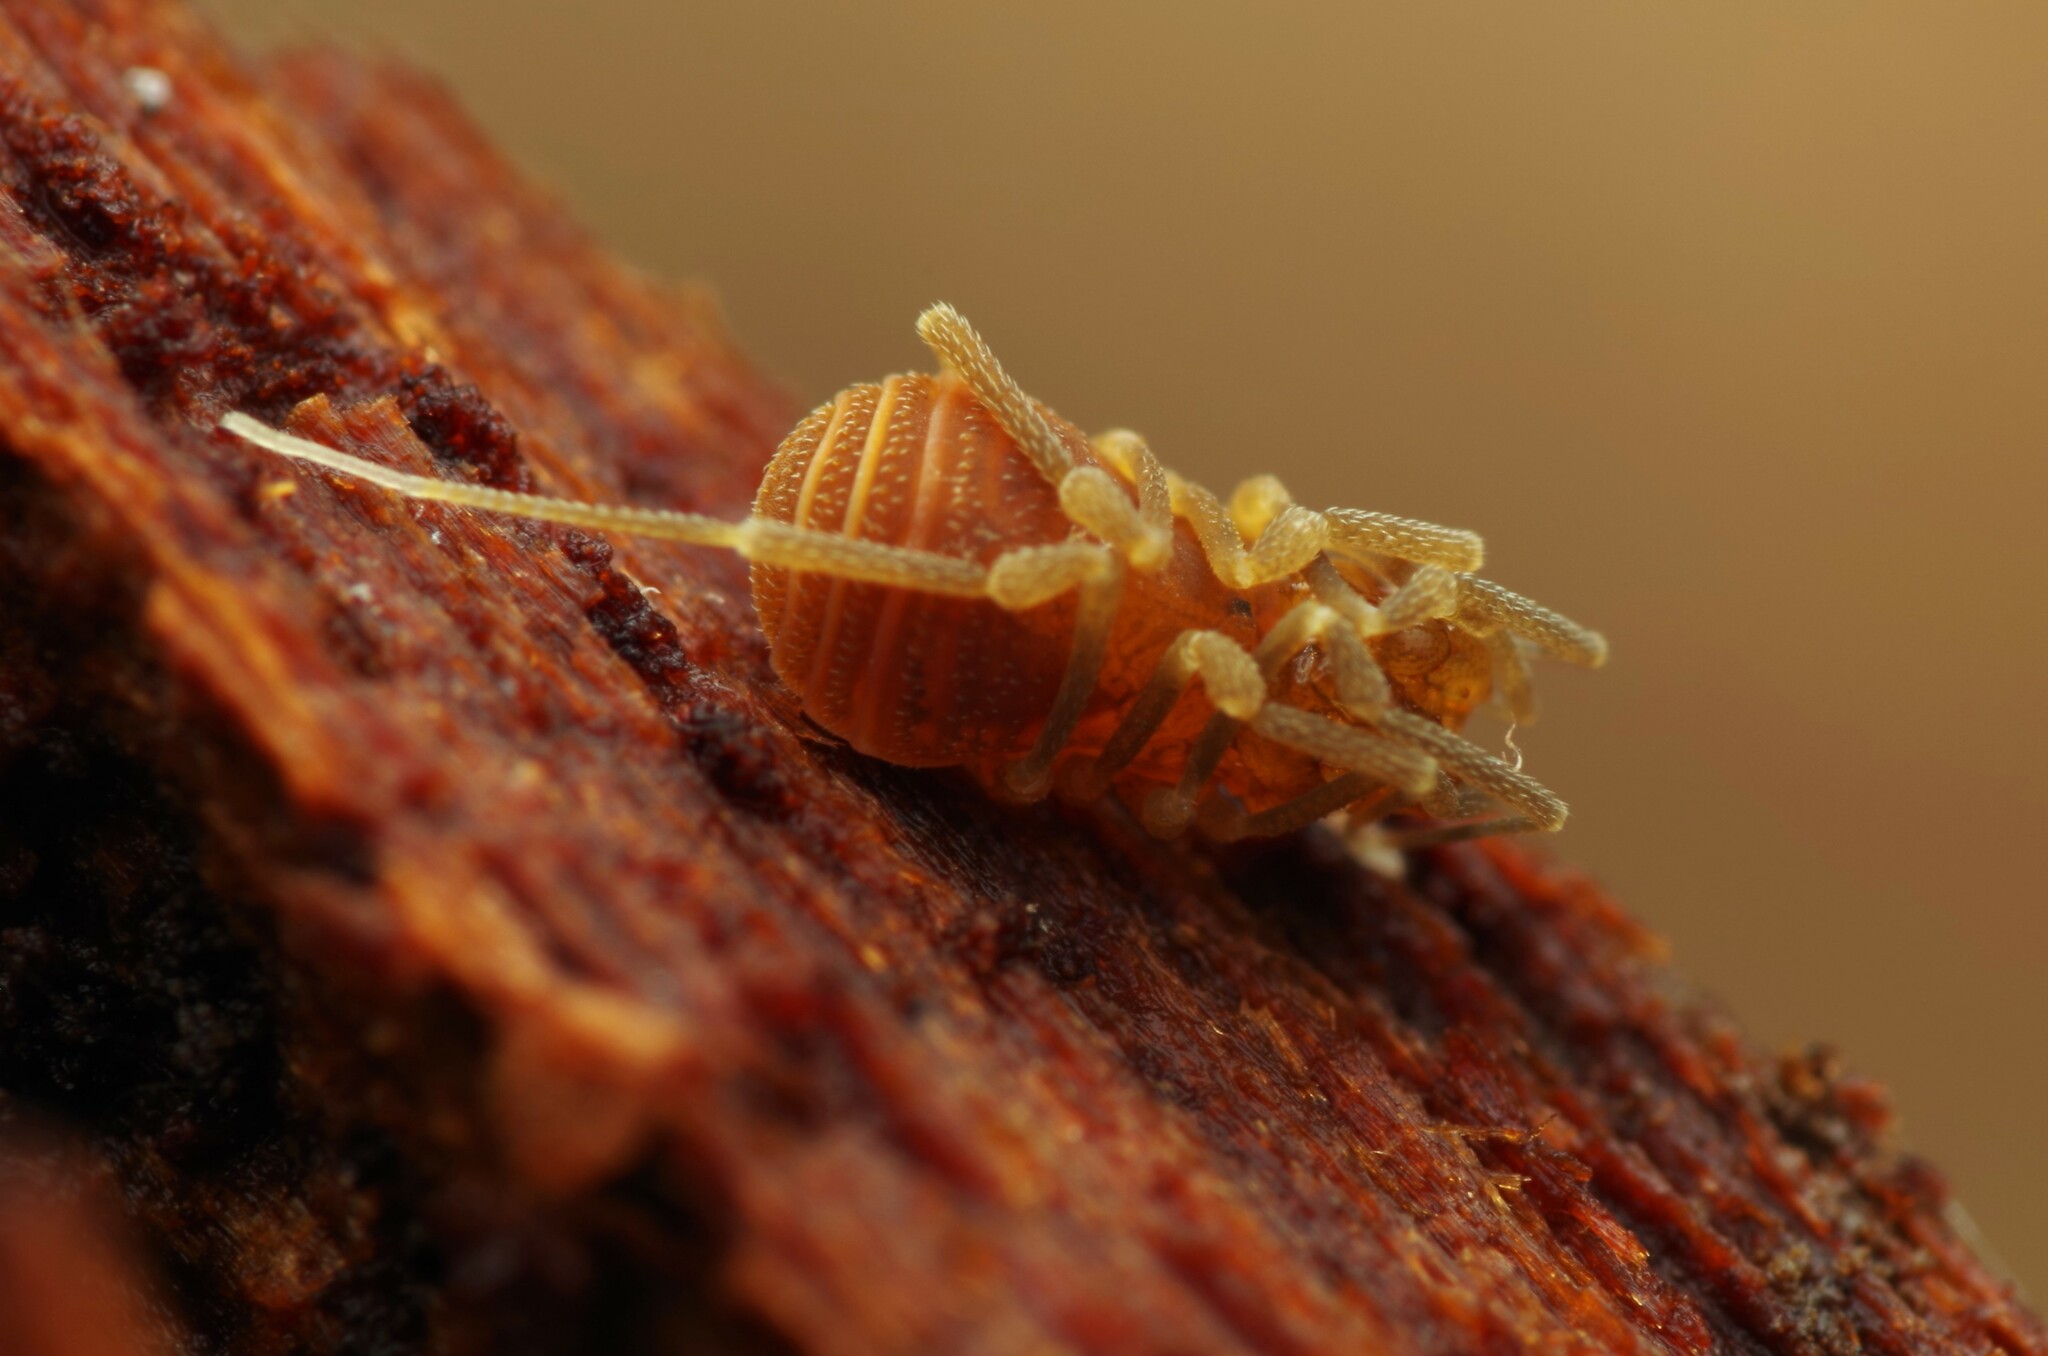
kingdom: Animalia
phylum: Arthropoda
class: Arachnida
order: Opiliones
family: Cladonychiidae
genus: Holoscotolemon
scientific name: Holoscotolemon querilhaci
